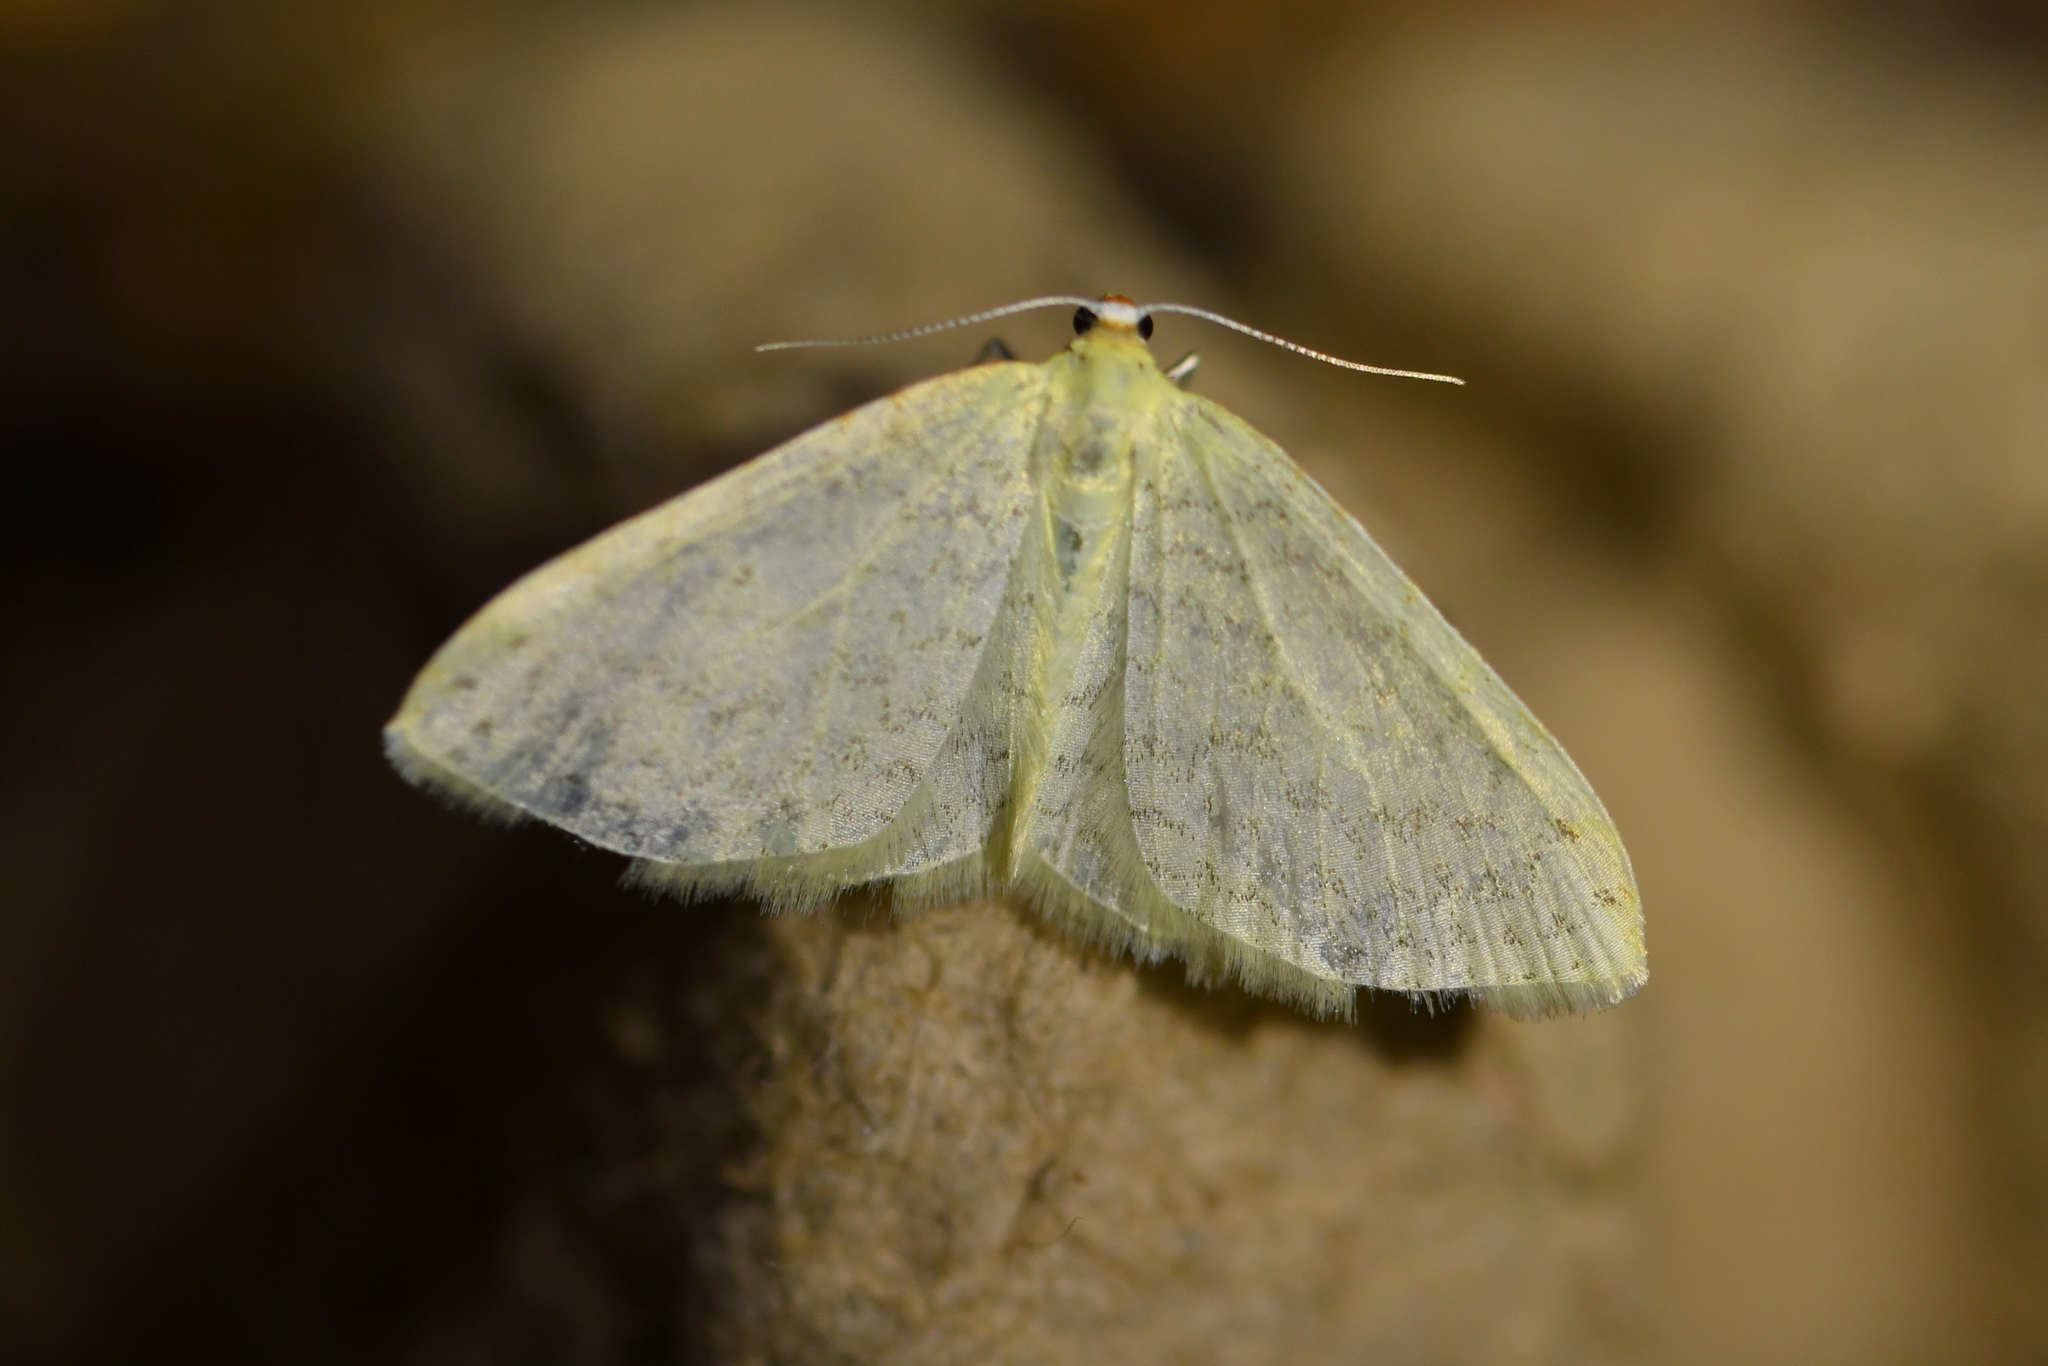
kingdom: Animalia
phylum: Arthropoda
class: Insecta
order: Lepidoptera
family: Geometridae
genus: Epiphryne
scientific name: Epiphryne undosata
